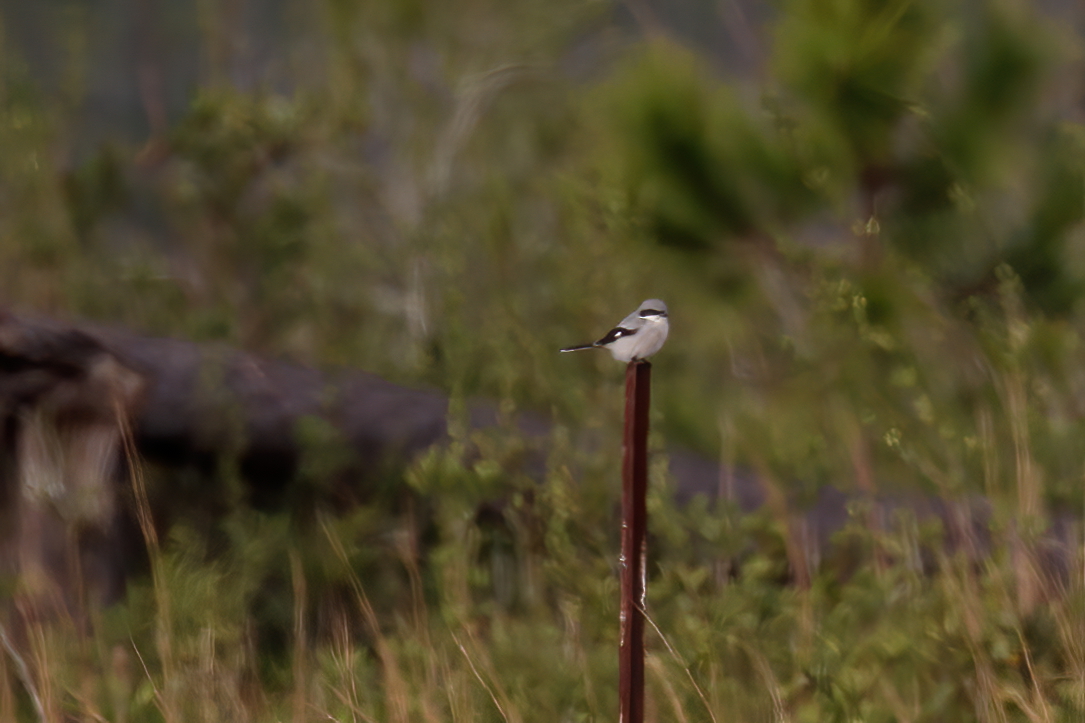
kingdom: Animalia
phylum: Chordata
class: Aves
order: Passeriformes
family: Laniidae
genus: Lanius
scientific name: Lanius ludovicianus
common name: Loggerhead shrike
